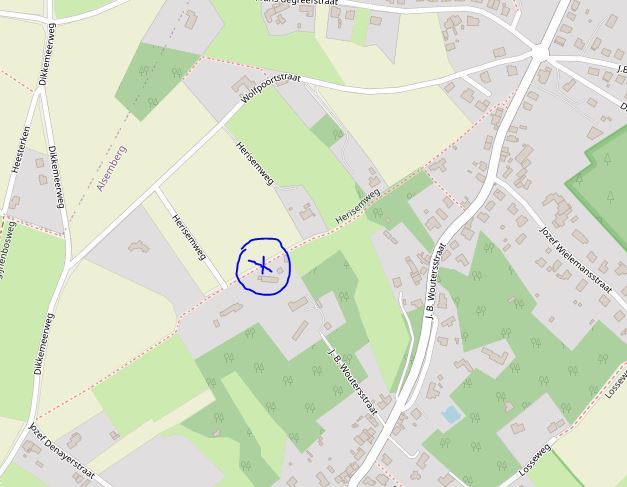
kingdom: Animalia
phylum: Arthropoda
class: Insecta
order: Hymenoptera
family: Vespidae
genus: Vespa
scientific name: Vespa velutina
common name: Asian hornet
